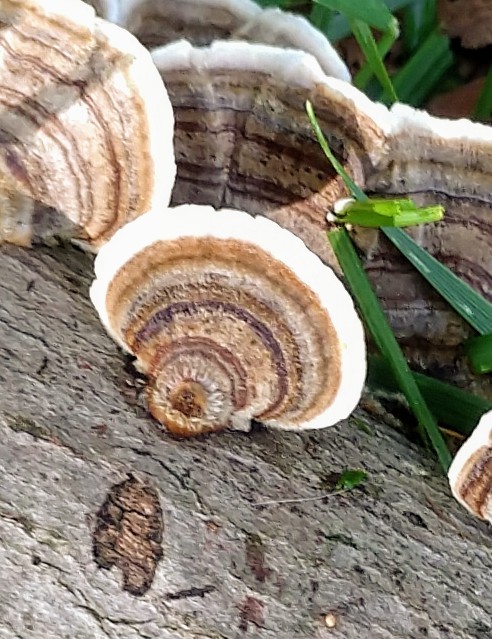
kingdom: Fungi
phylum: Basidiomycota
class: Agaricomycetes
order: Polyporales
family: Polyporaceae
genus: Trametes
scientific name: Trametes cubensis
